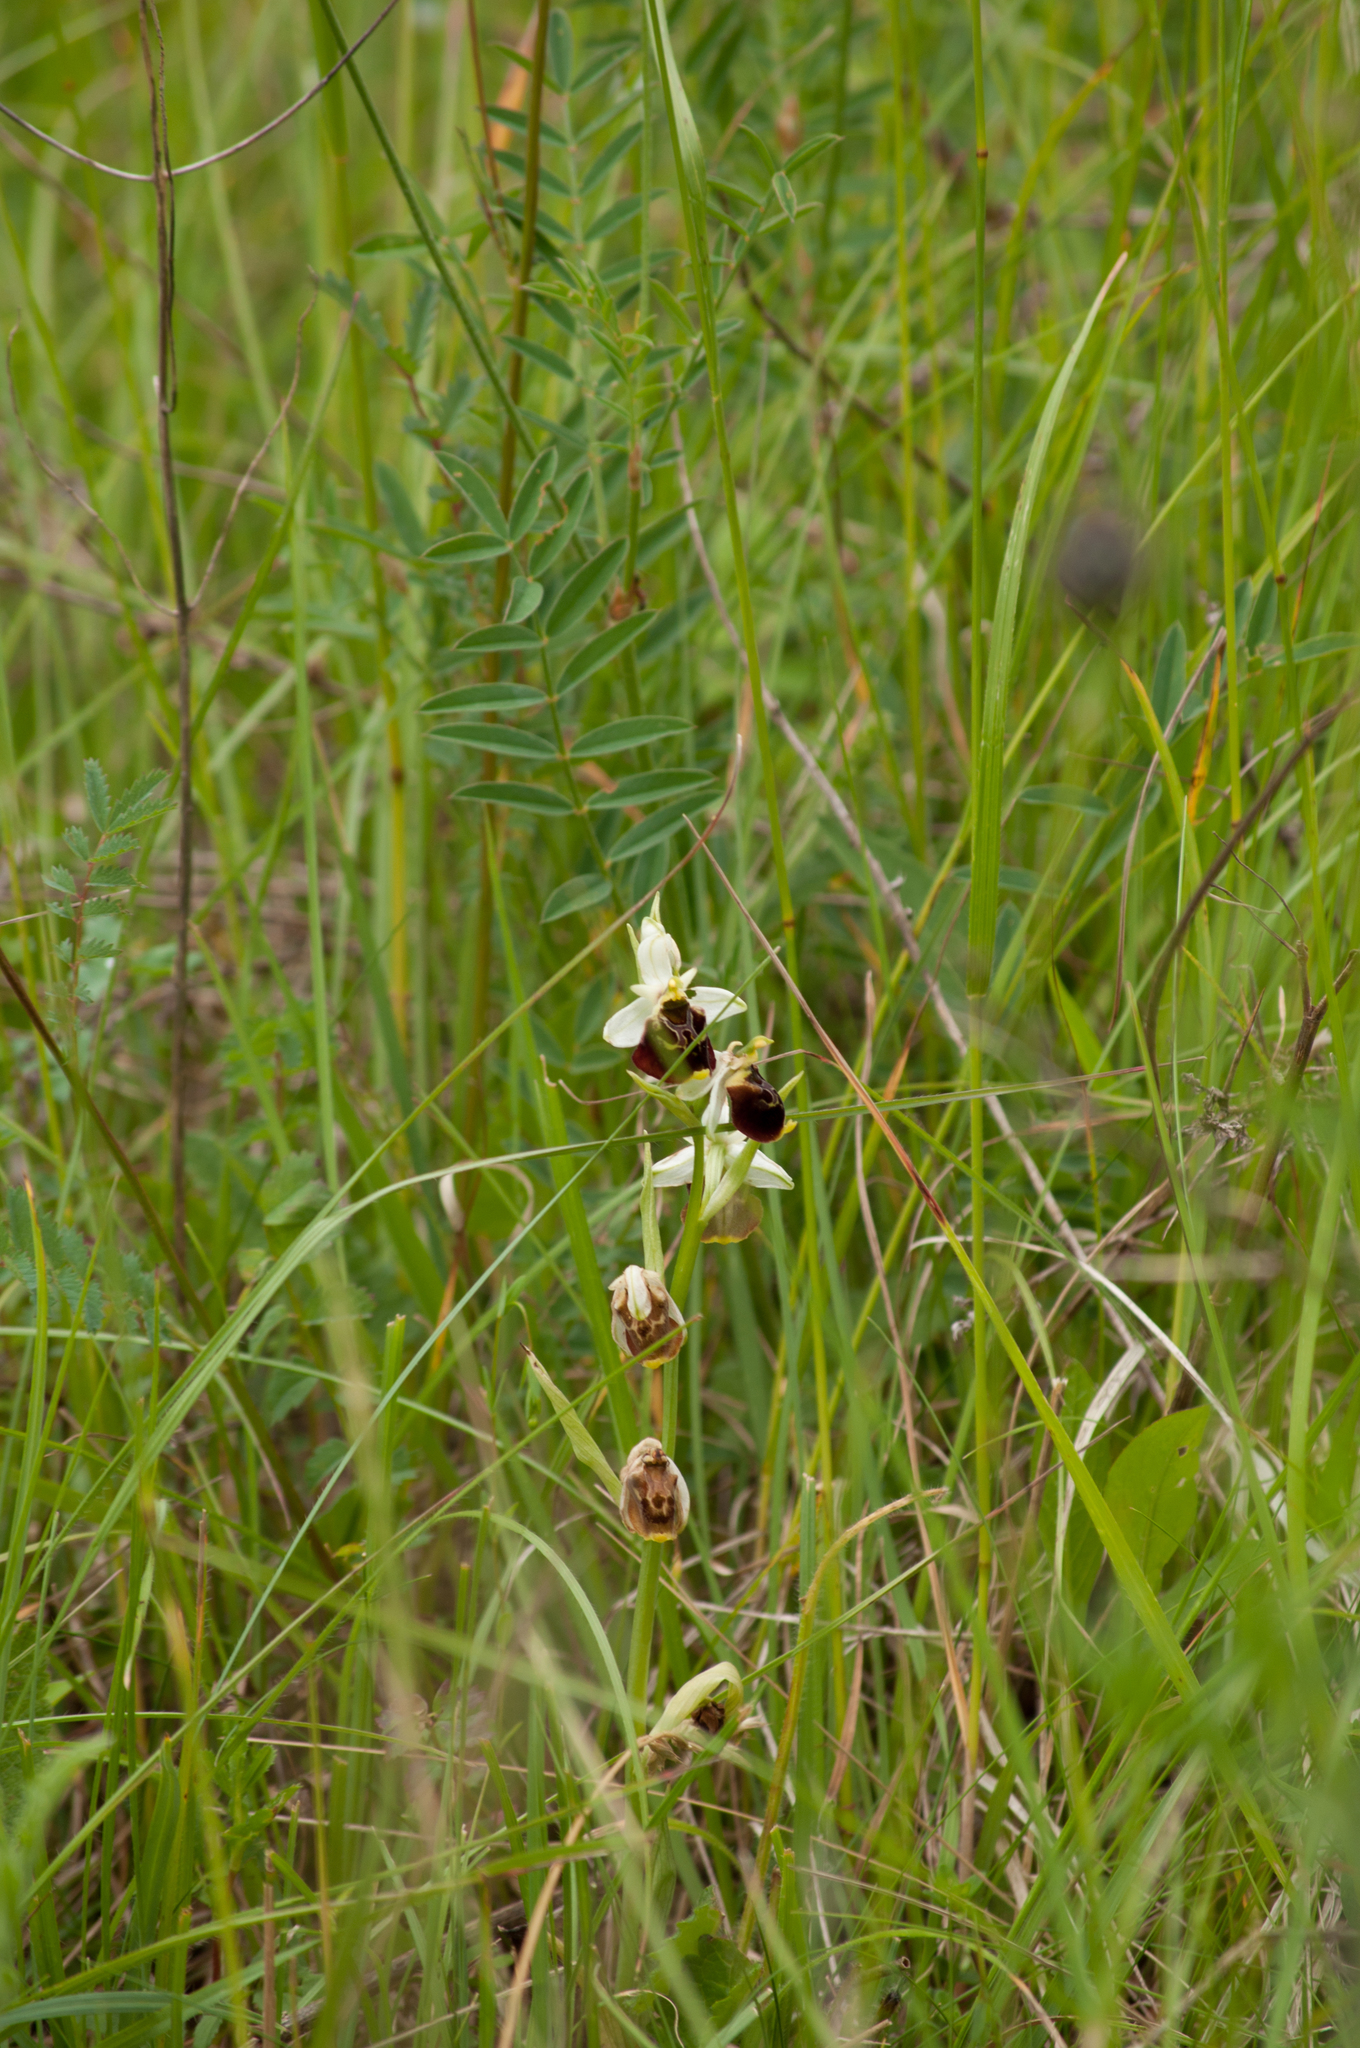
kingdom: Plantae
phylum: Tracheophyta
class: Liliopsida
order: Asparagales
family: Orchidaceae
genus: Ophrys
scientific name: Ophrys holosericea
